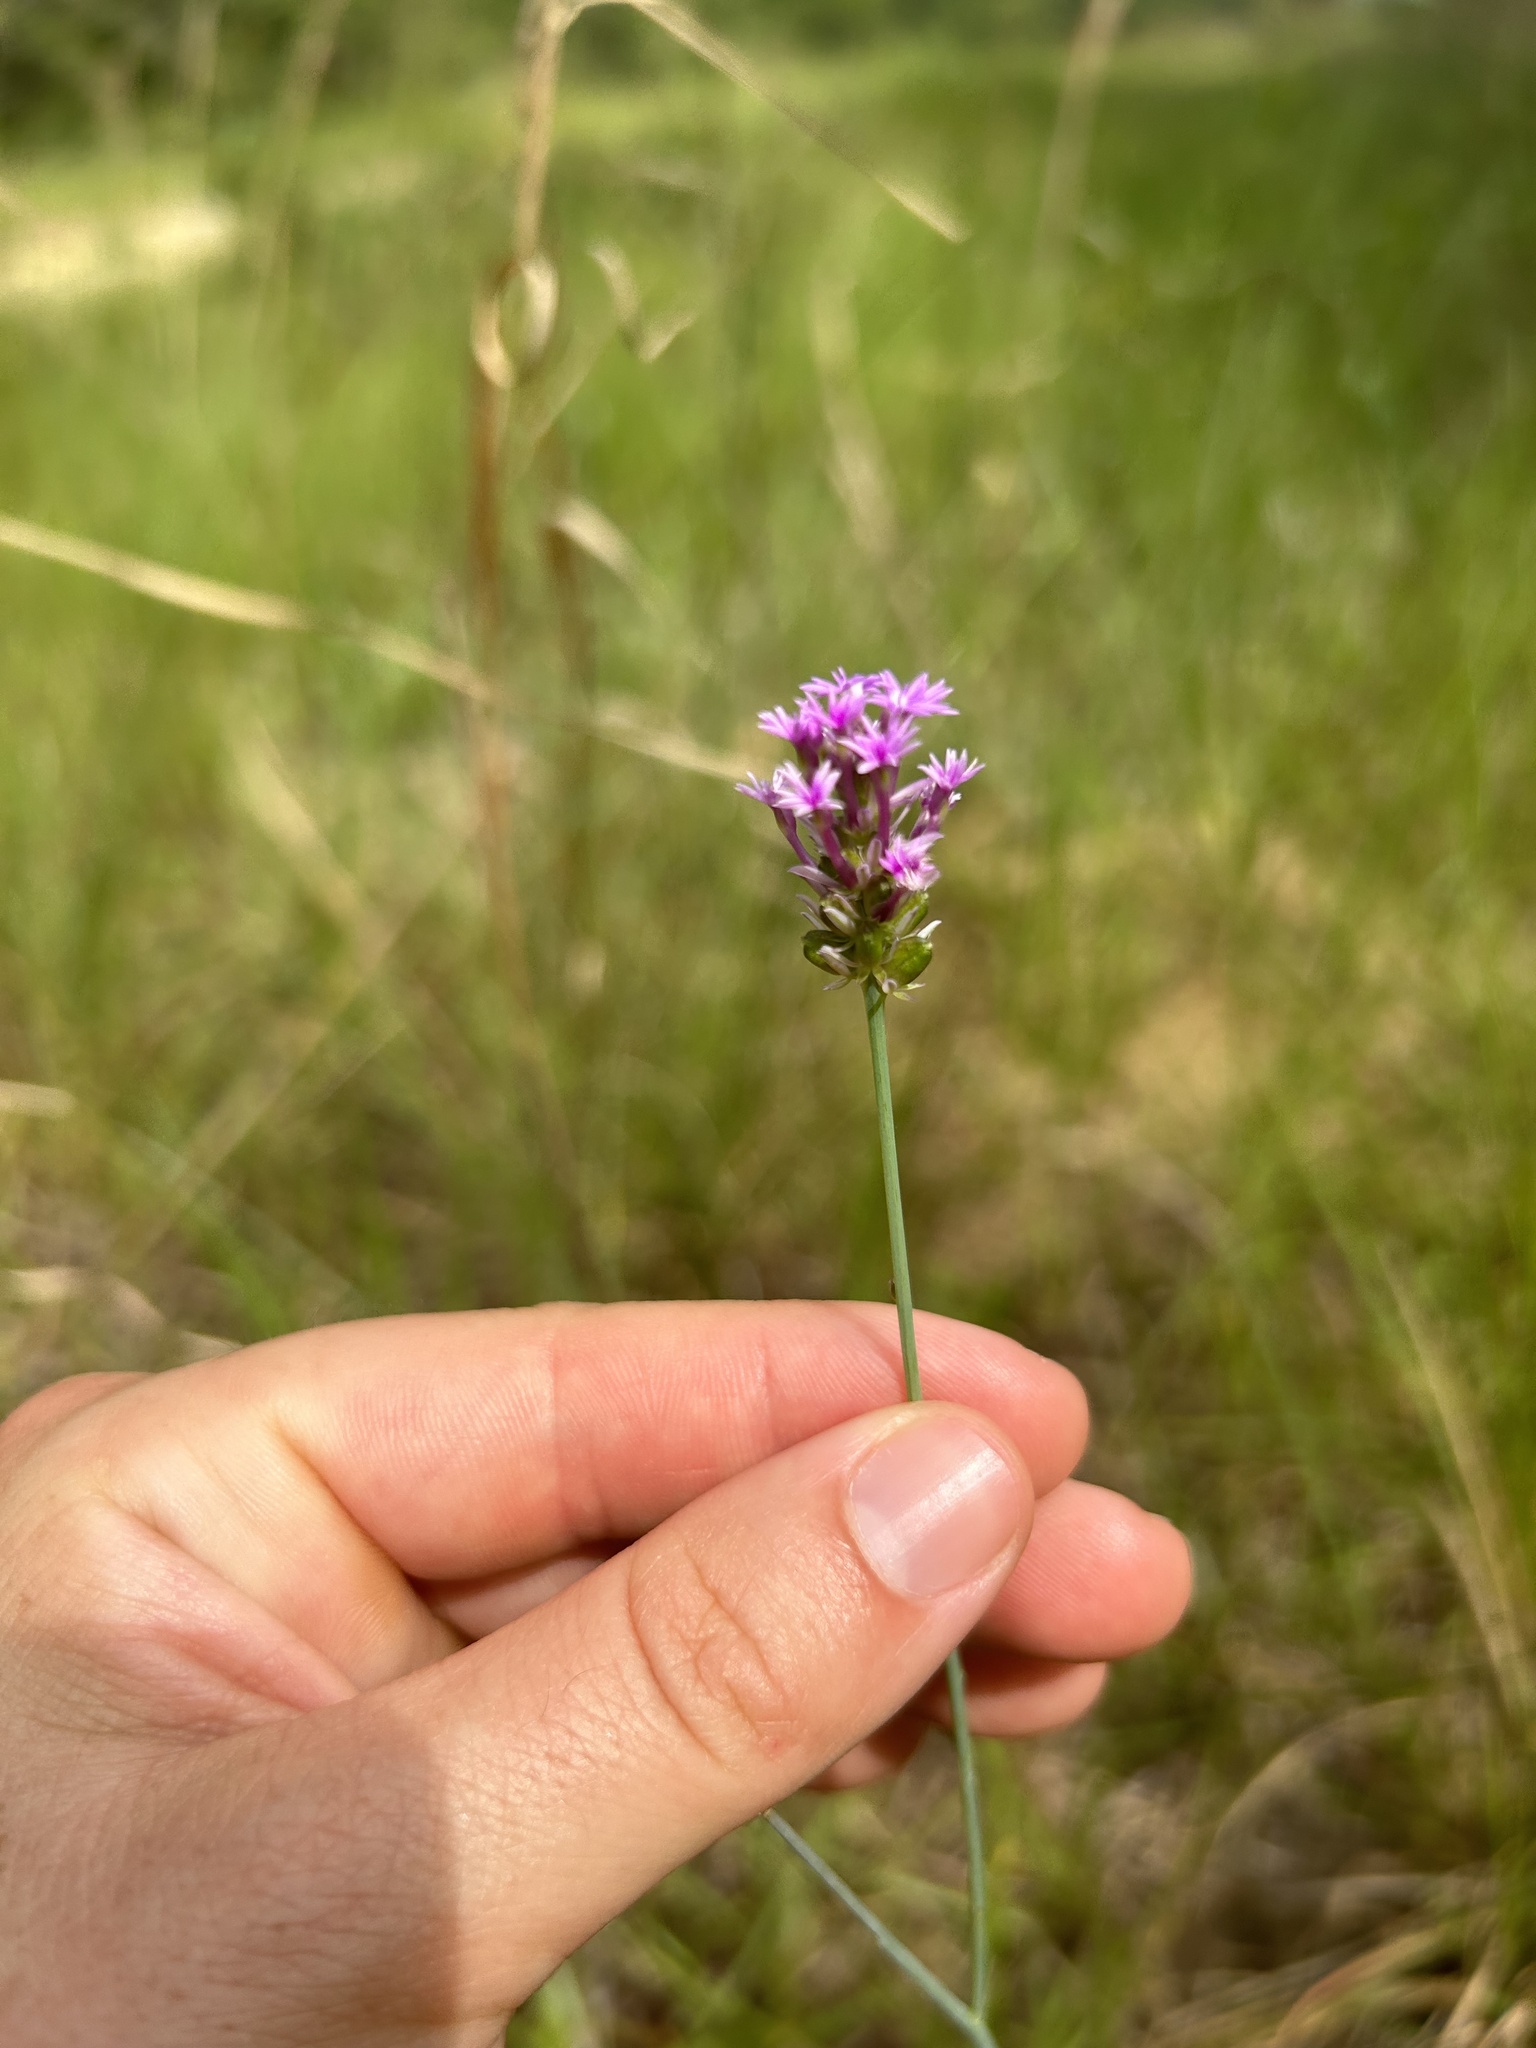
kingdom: Plantae
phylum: Tracheophyta
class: Magnoliopsida
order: Fabales
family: Polygalaceae
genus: Polygala
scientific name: Polygala incarnata
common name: Pink milkwort
